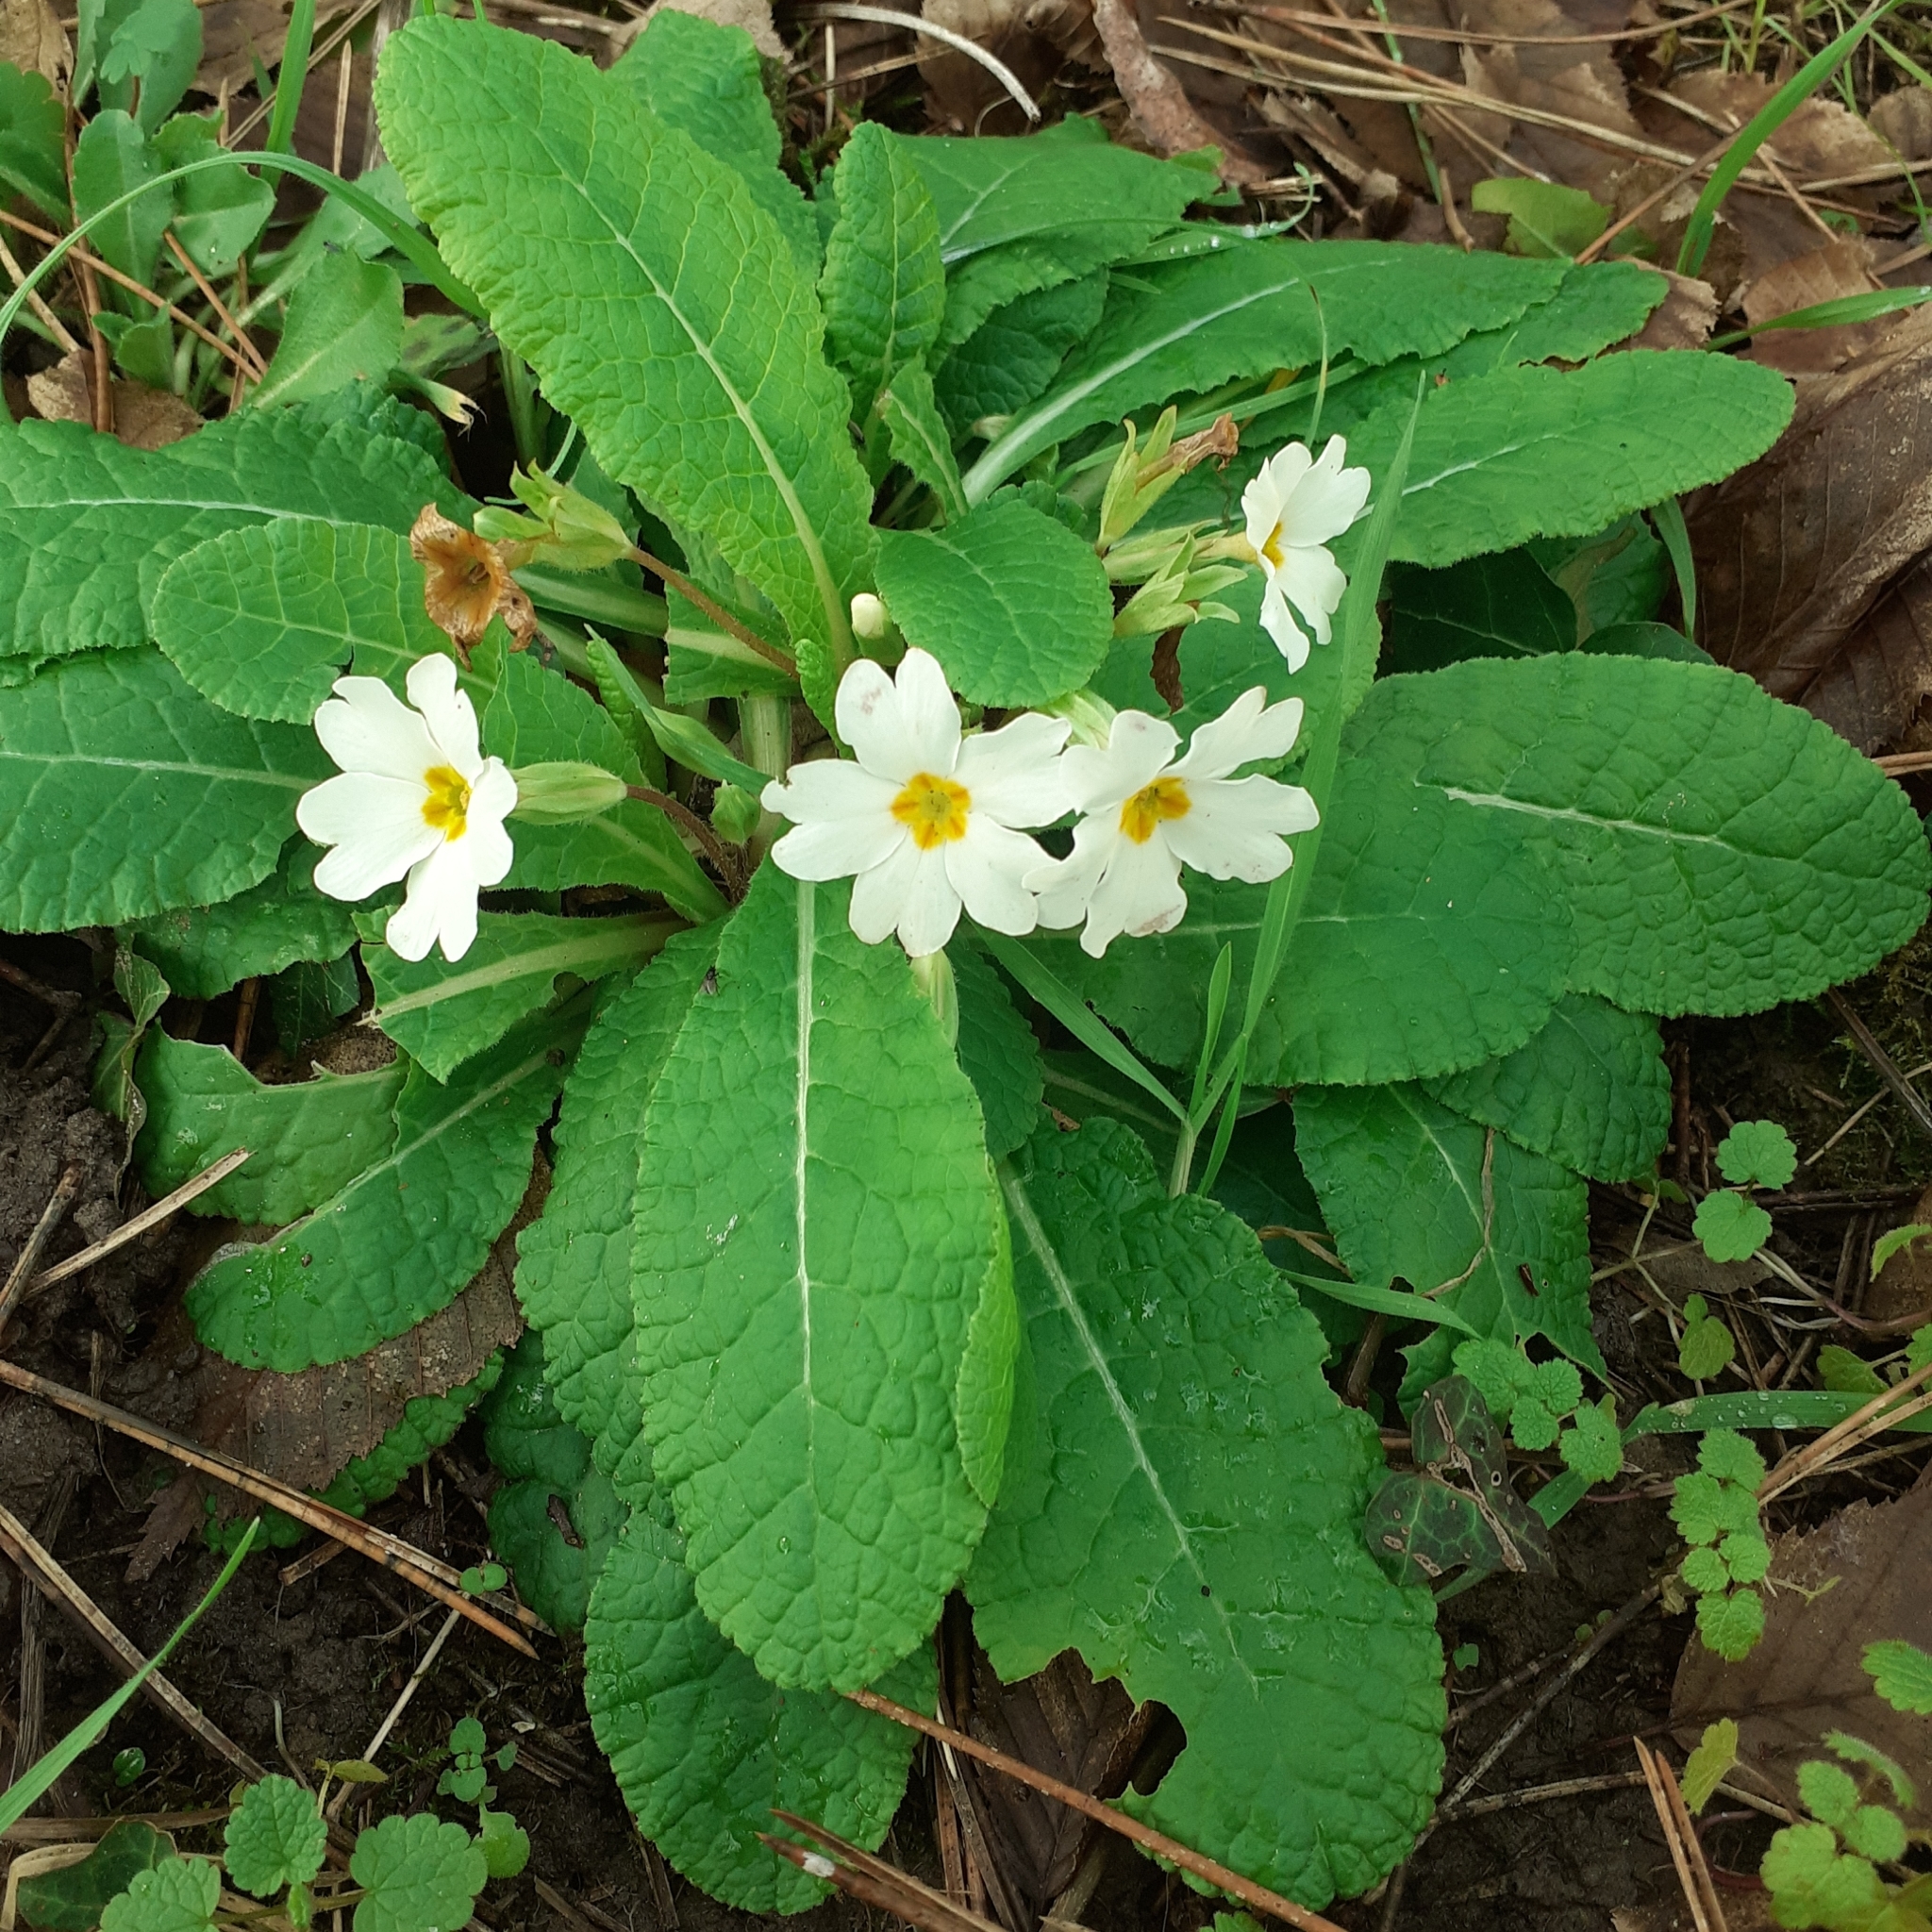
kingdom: Plantae
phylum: Tracheophyta
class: Magnoliopsida
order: Ericales
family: Primulaceae
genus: Primula
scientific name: Primula vulgaris
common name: Primrose
